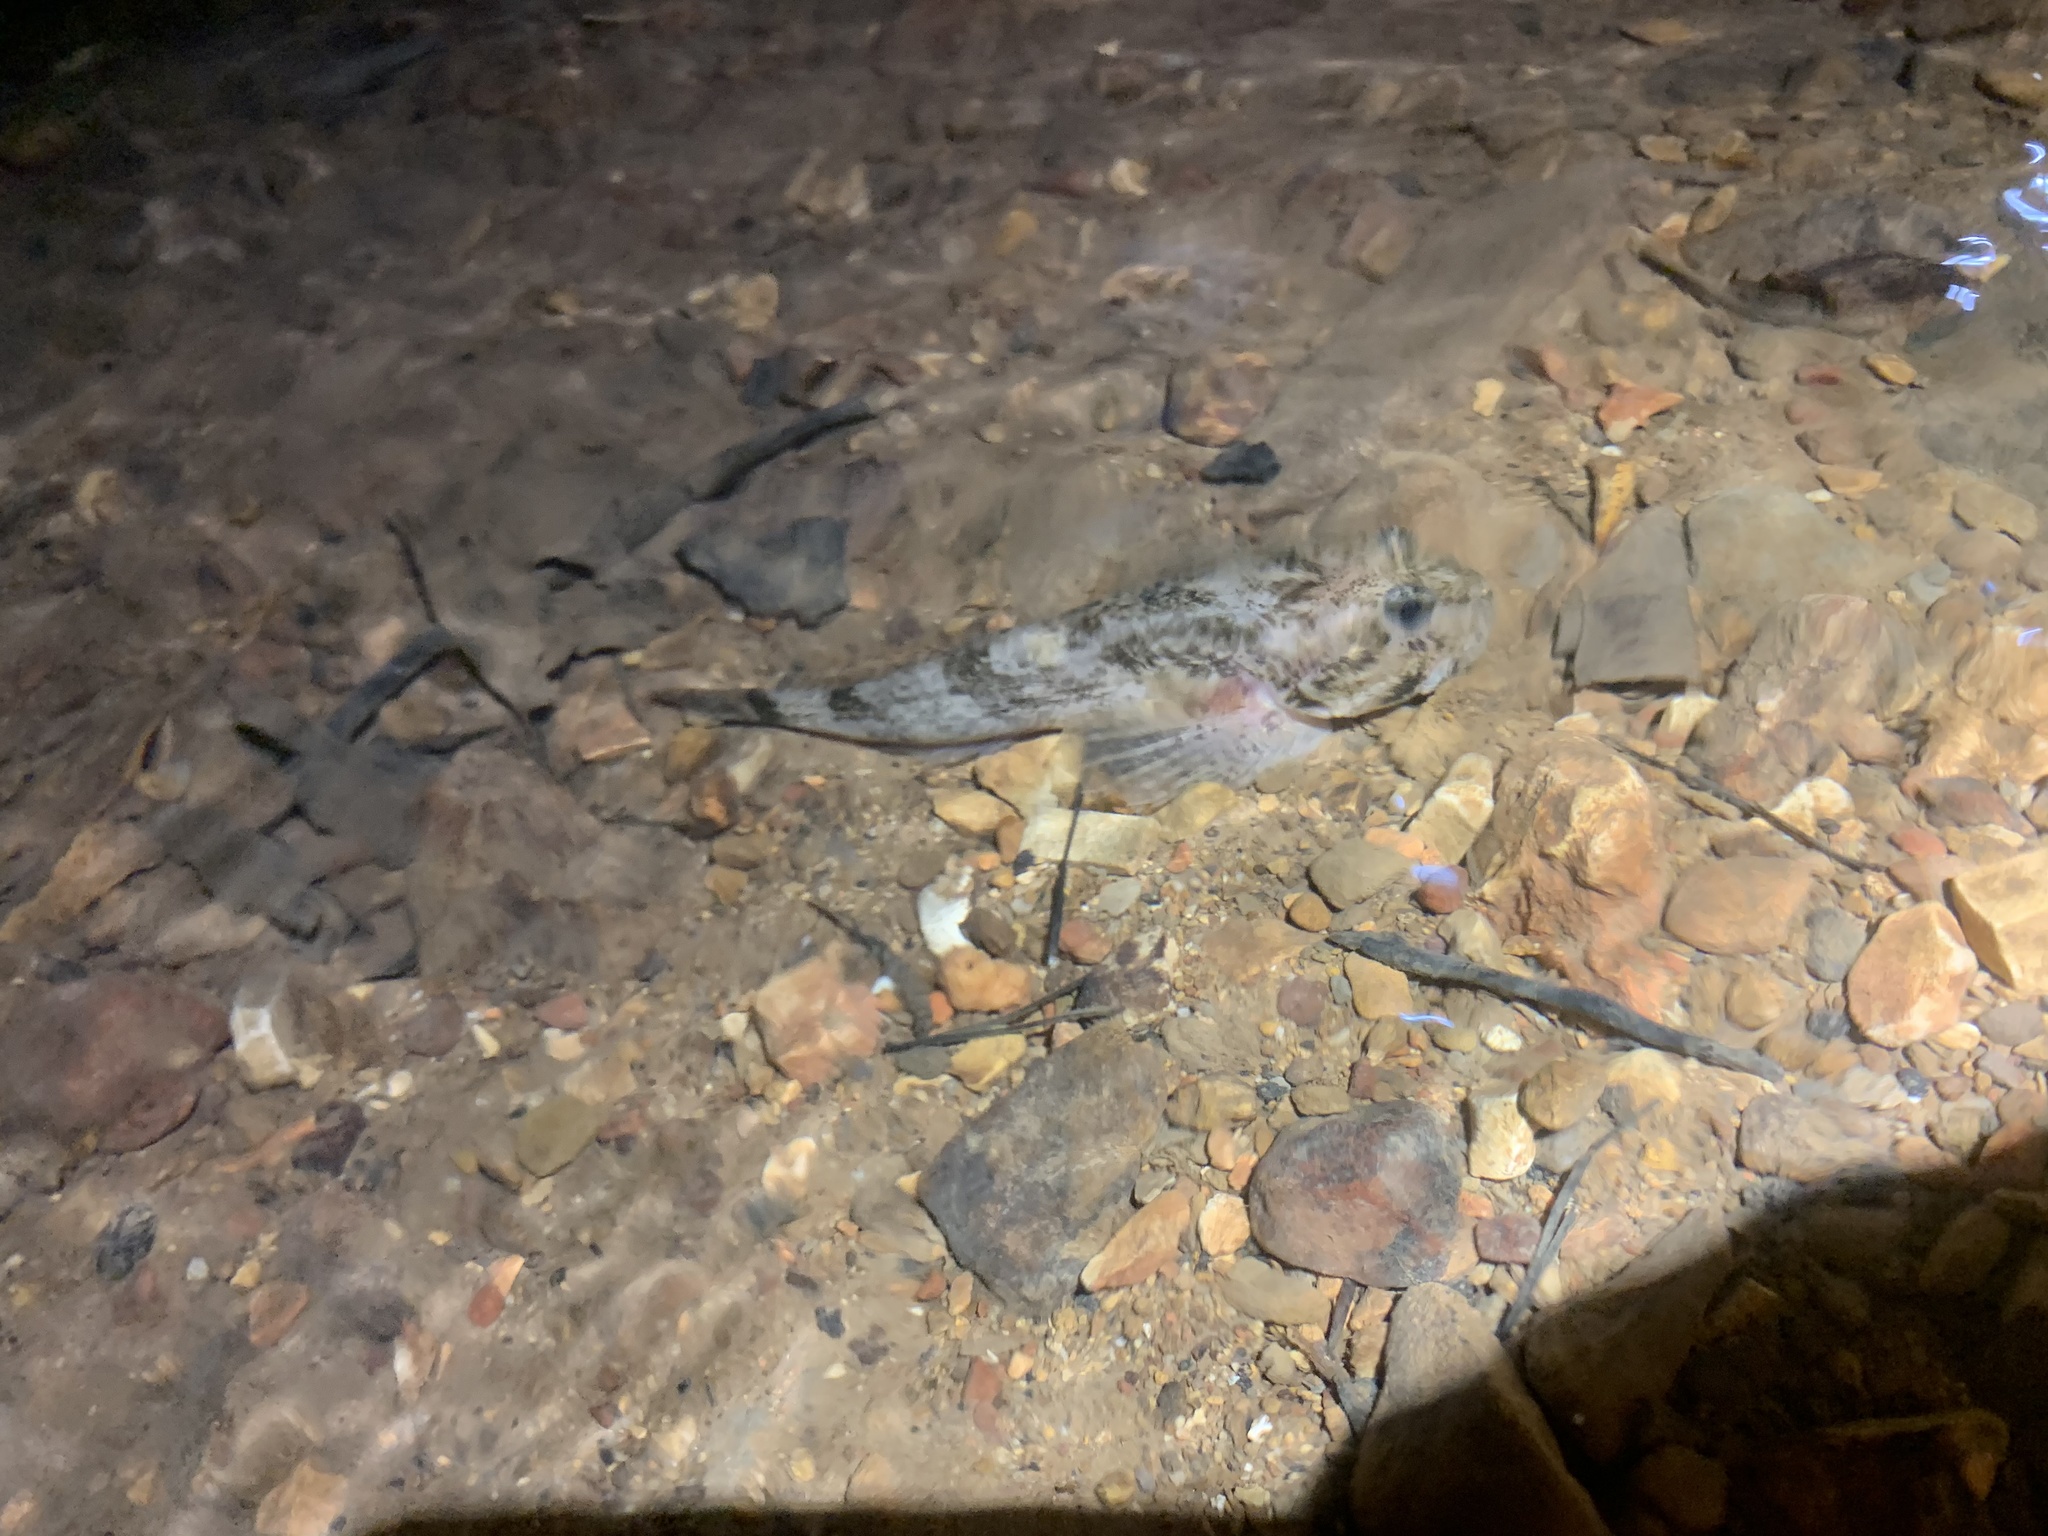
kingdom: Animalia
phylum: Chordata
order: Scorpaeniformes
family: Cottidae
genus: Cottus
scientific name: Cottus bairdii
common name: Mottled sculpin
